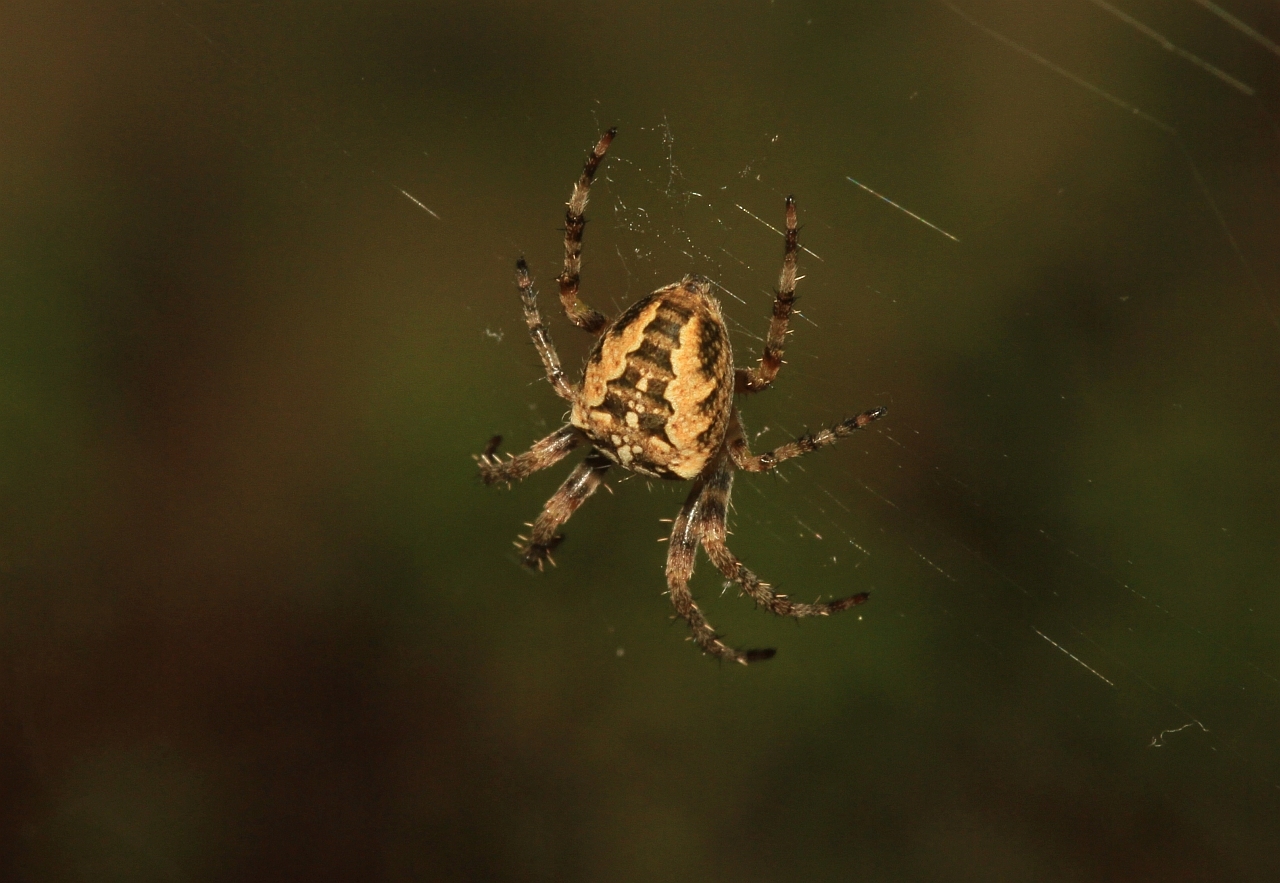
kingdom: Animalia
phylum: Arthropoda
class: Arachnida
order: Araneae
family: Araneidae
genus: Araneus
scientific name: Araneus diadematus
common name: Cross orbweaver
